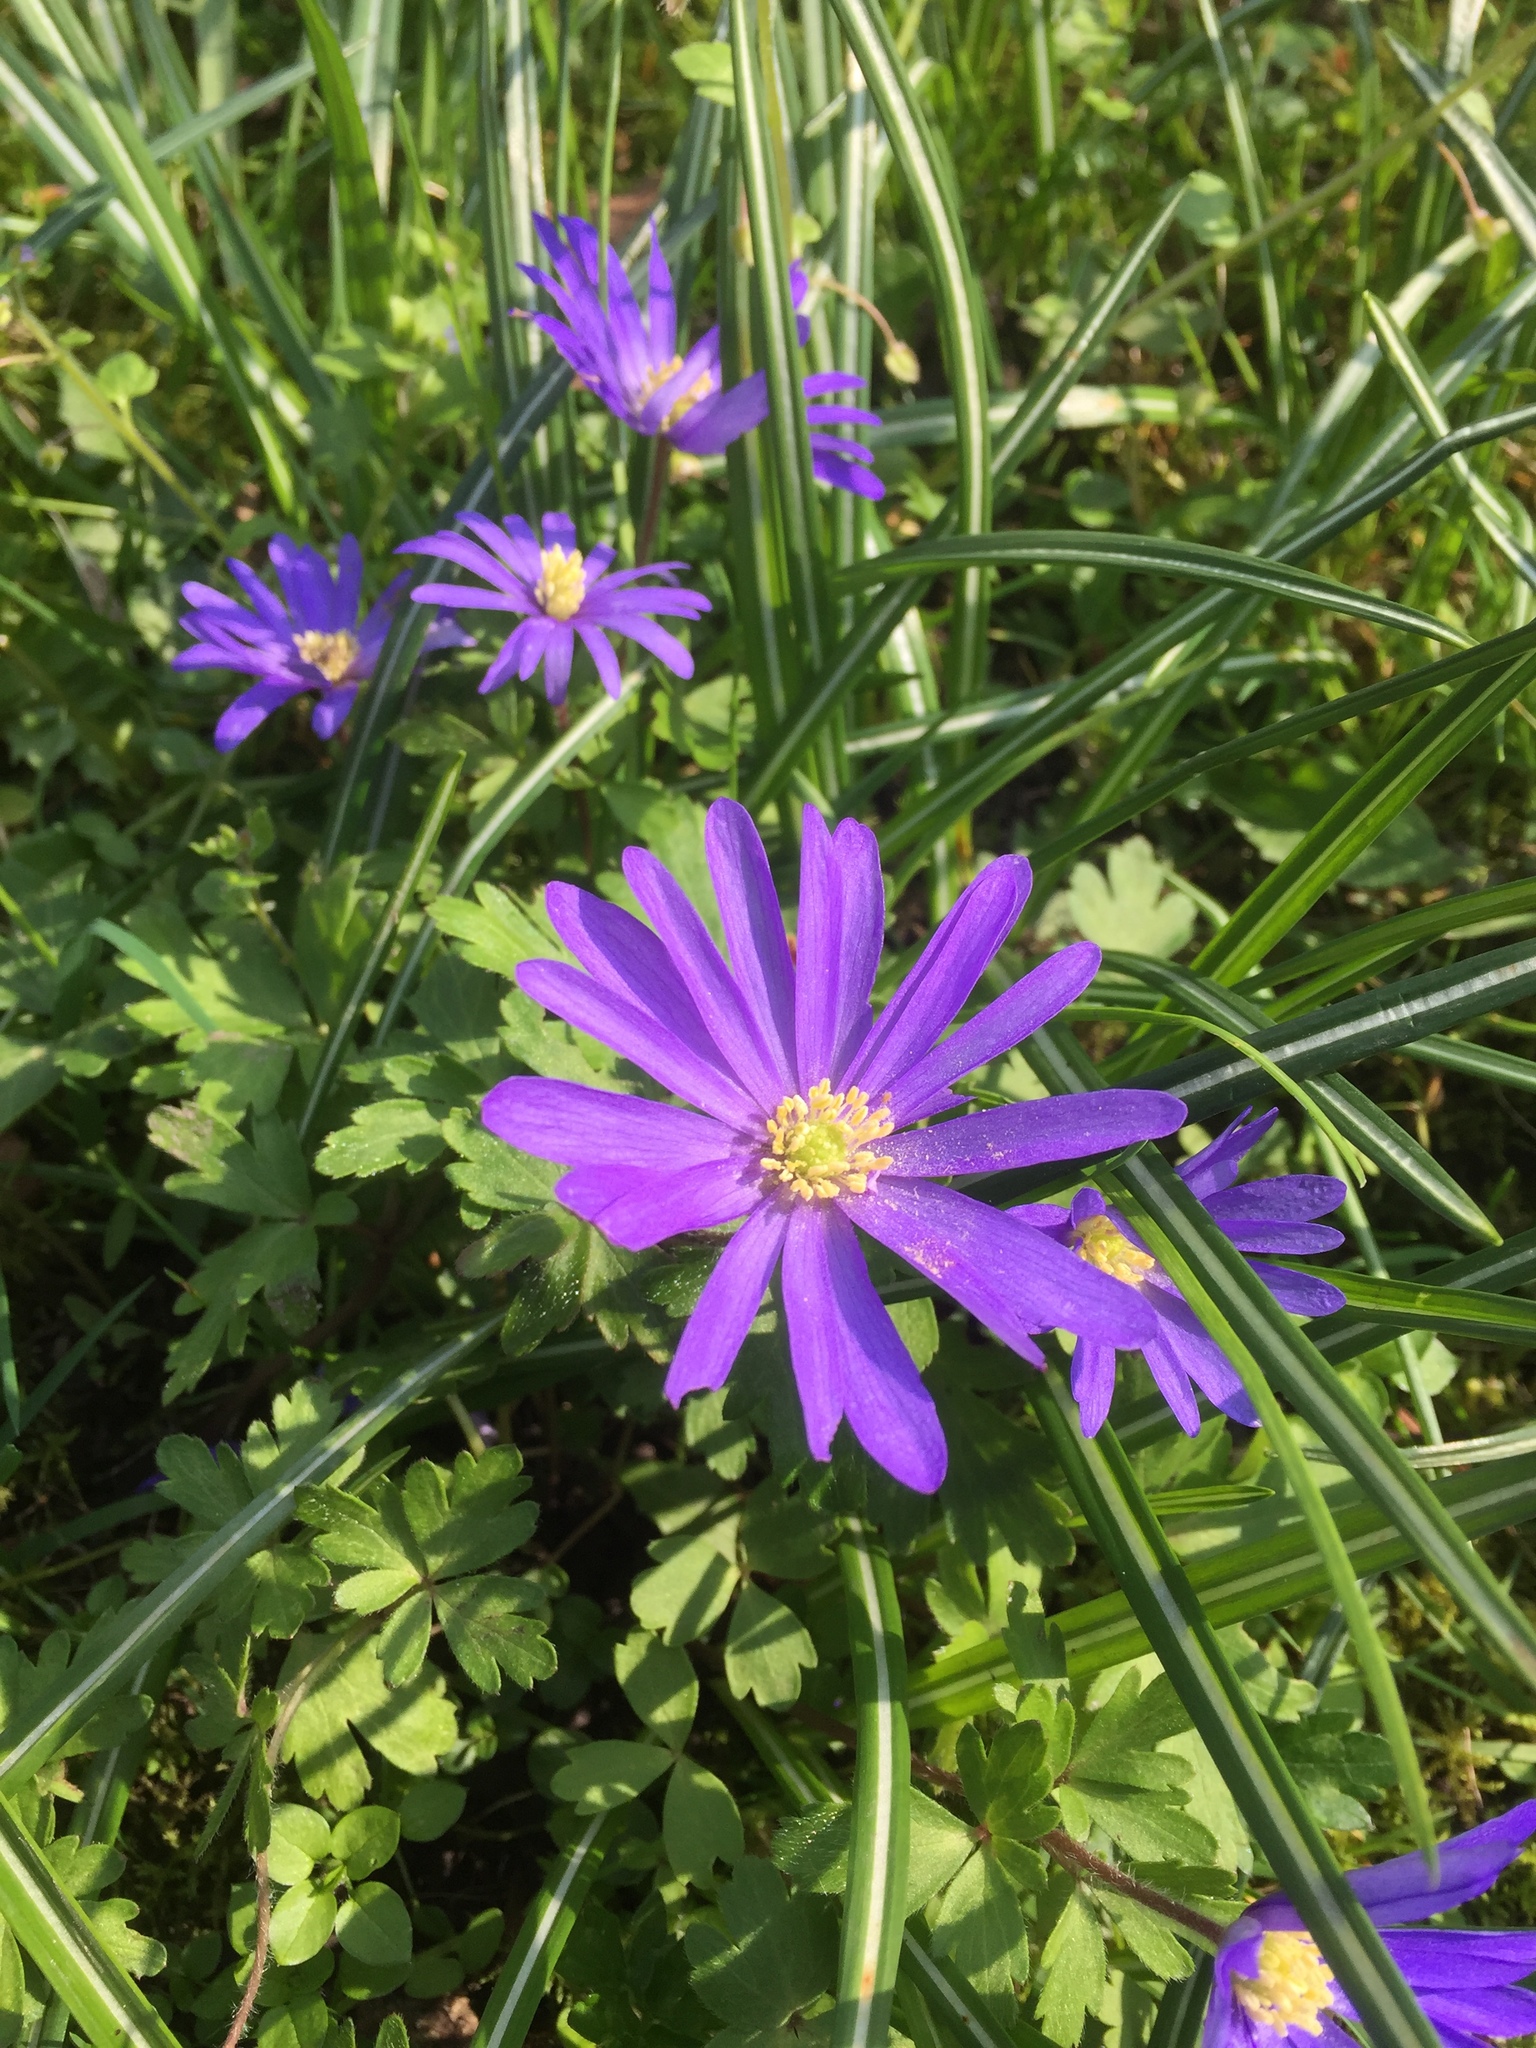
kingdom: Plantae
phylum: Tracheophyta
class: Magnoliopsida
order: Ranunculales
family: Ranunculaceae
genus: Anemone
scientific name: Anemone blanda
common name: Balkan anemone
